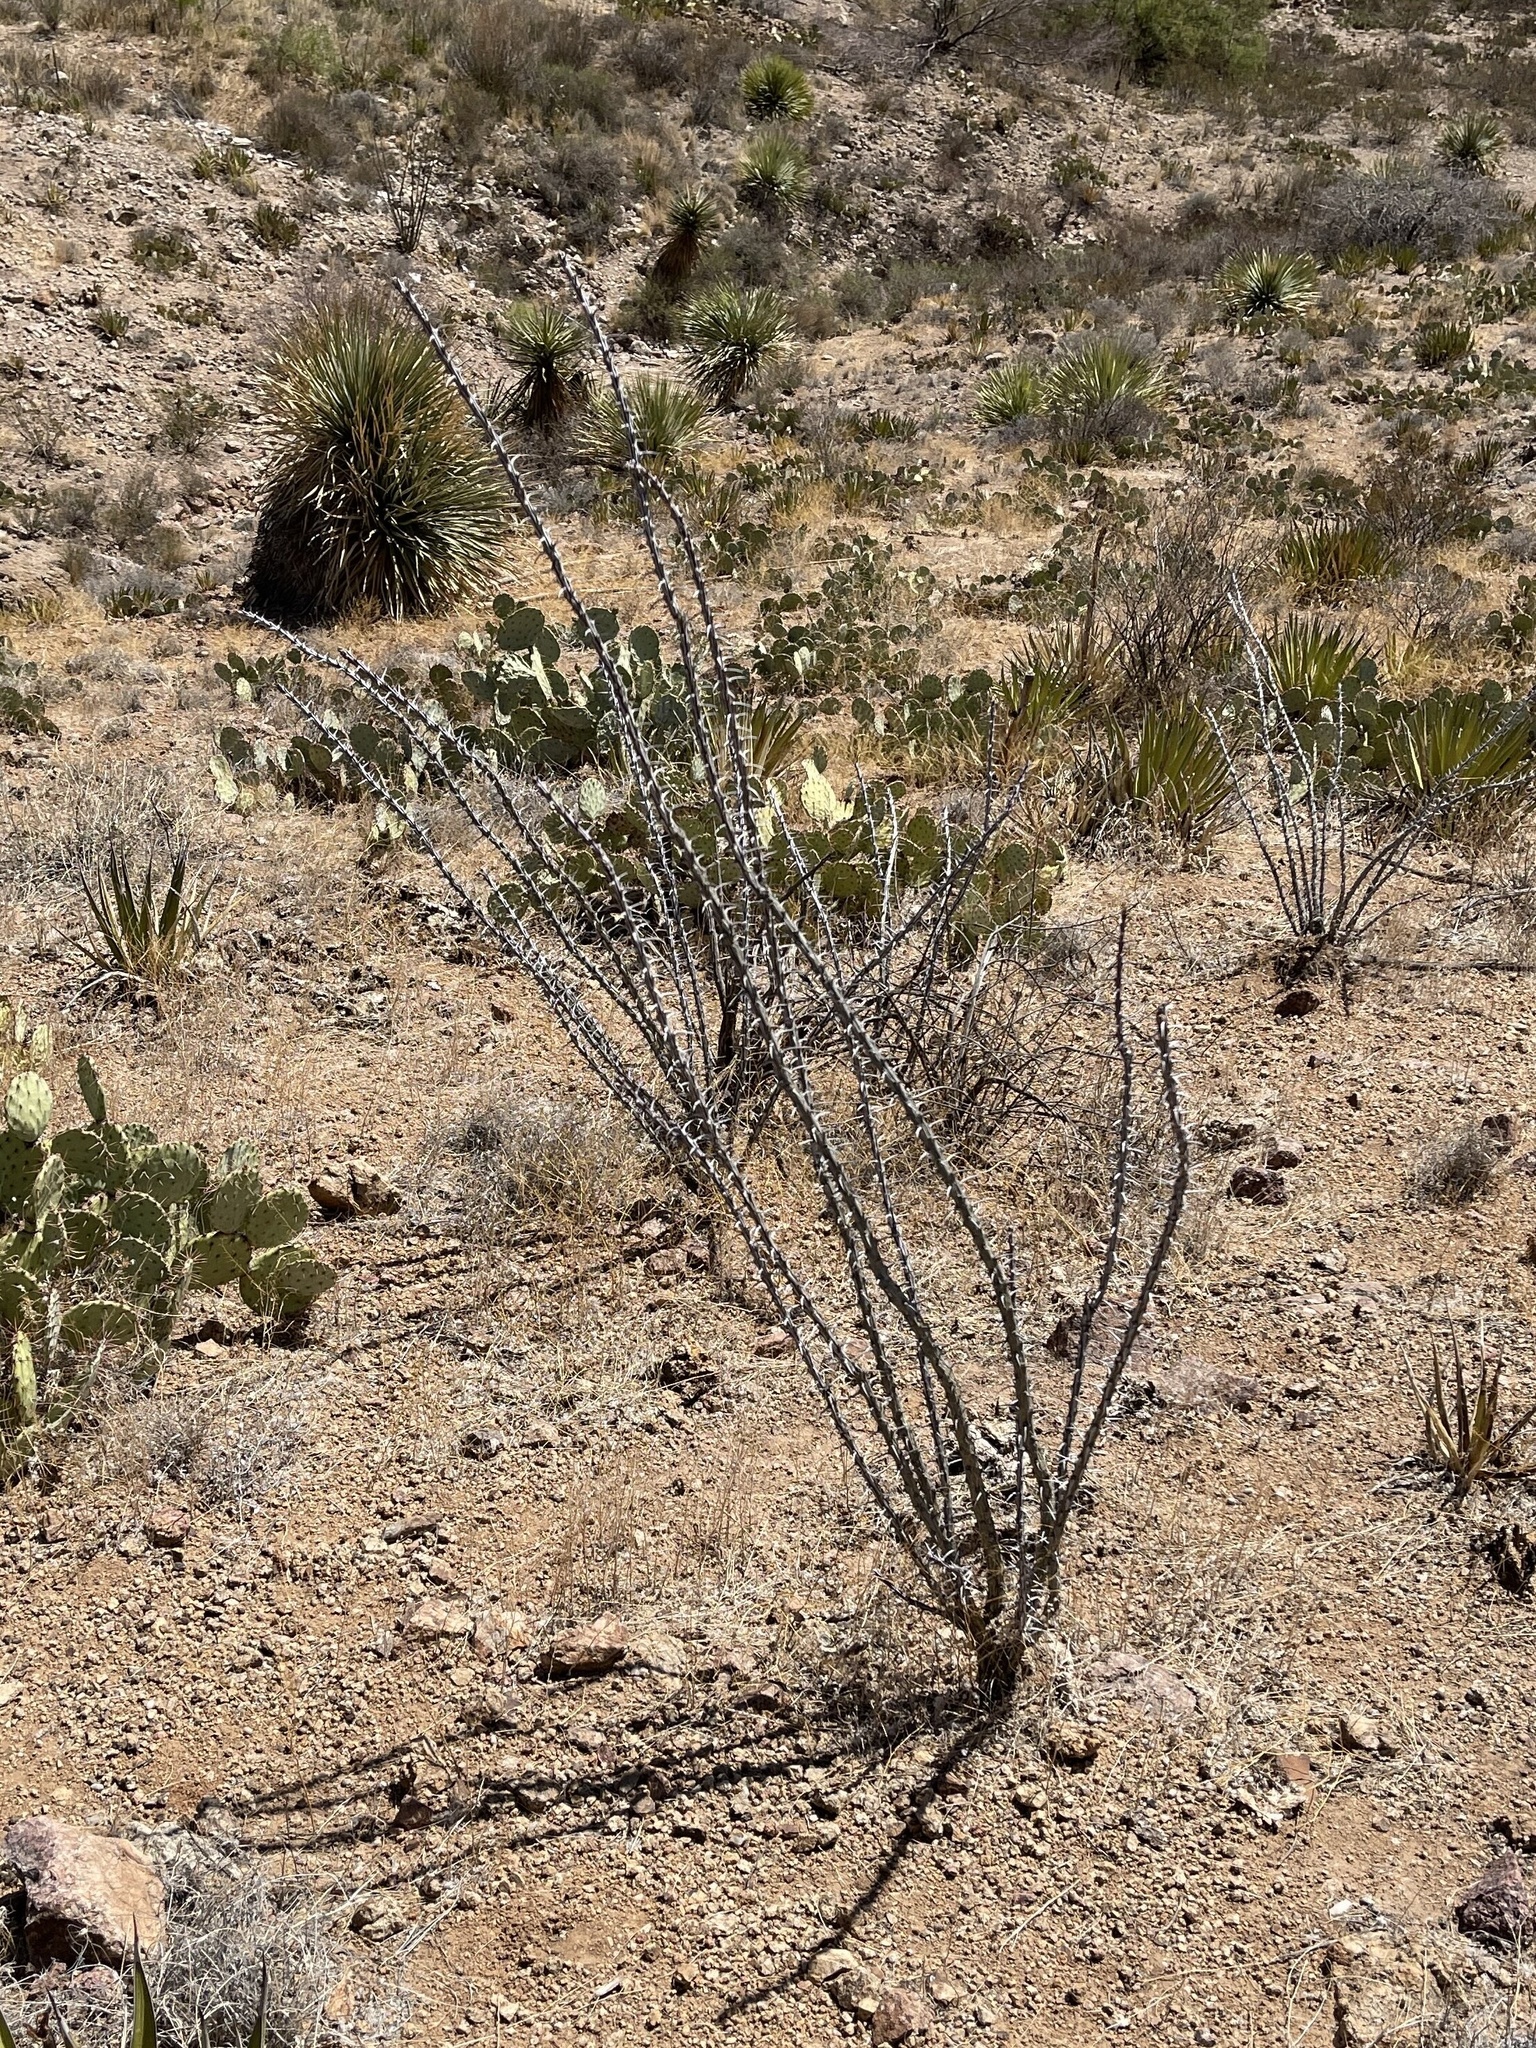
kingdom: Plantae
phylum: Tracheophyta
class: Magnoliopsida
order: Ericales
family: Fouquieriaceae
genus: Fouquieria
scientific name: Fouquieria splendens
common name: Vine-cactus
